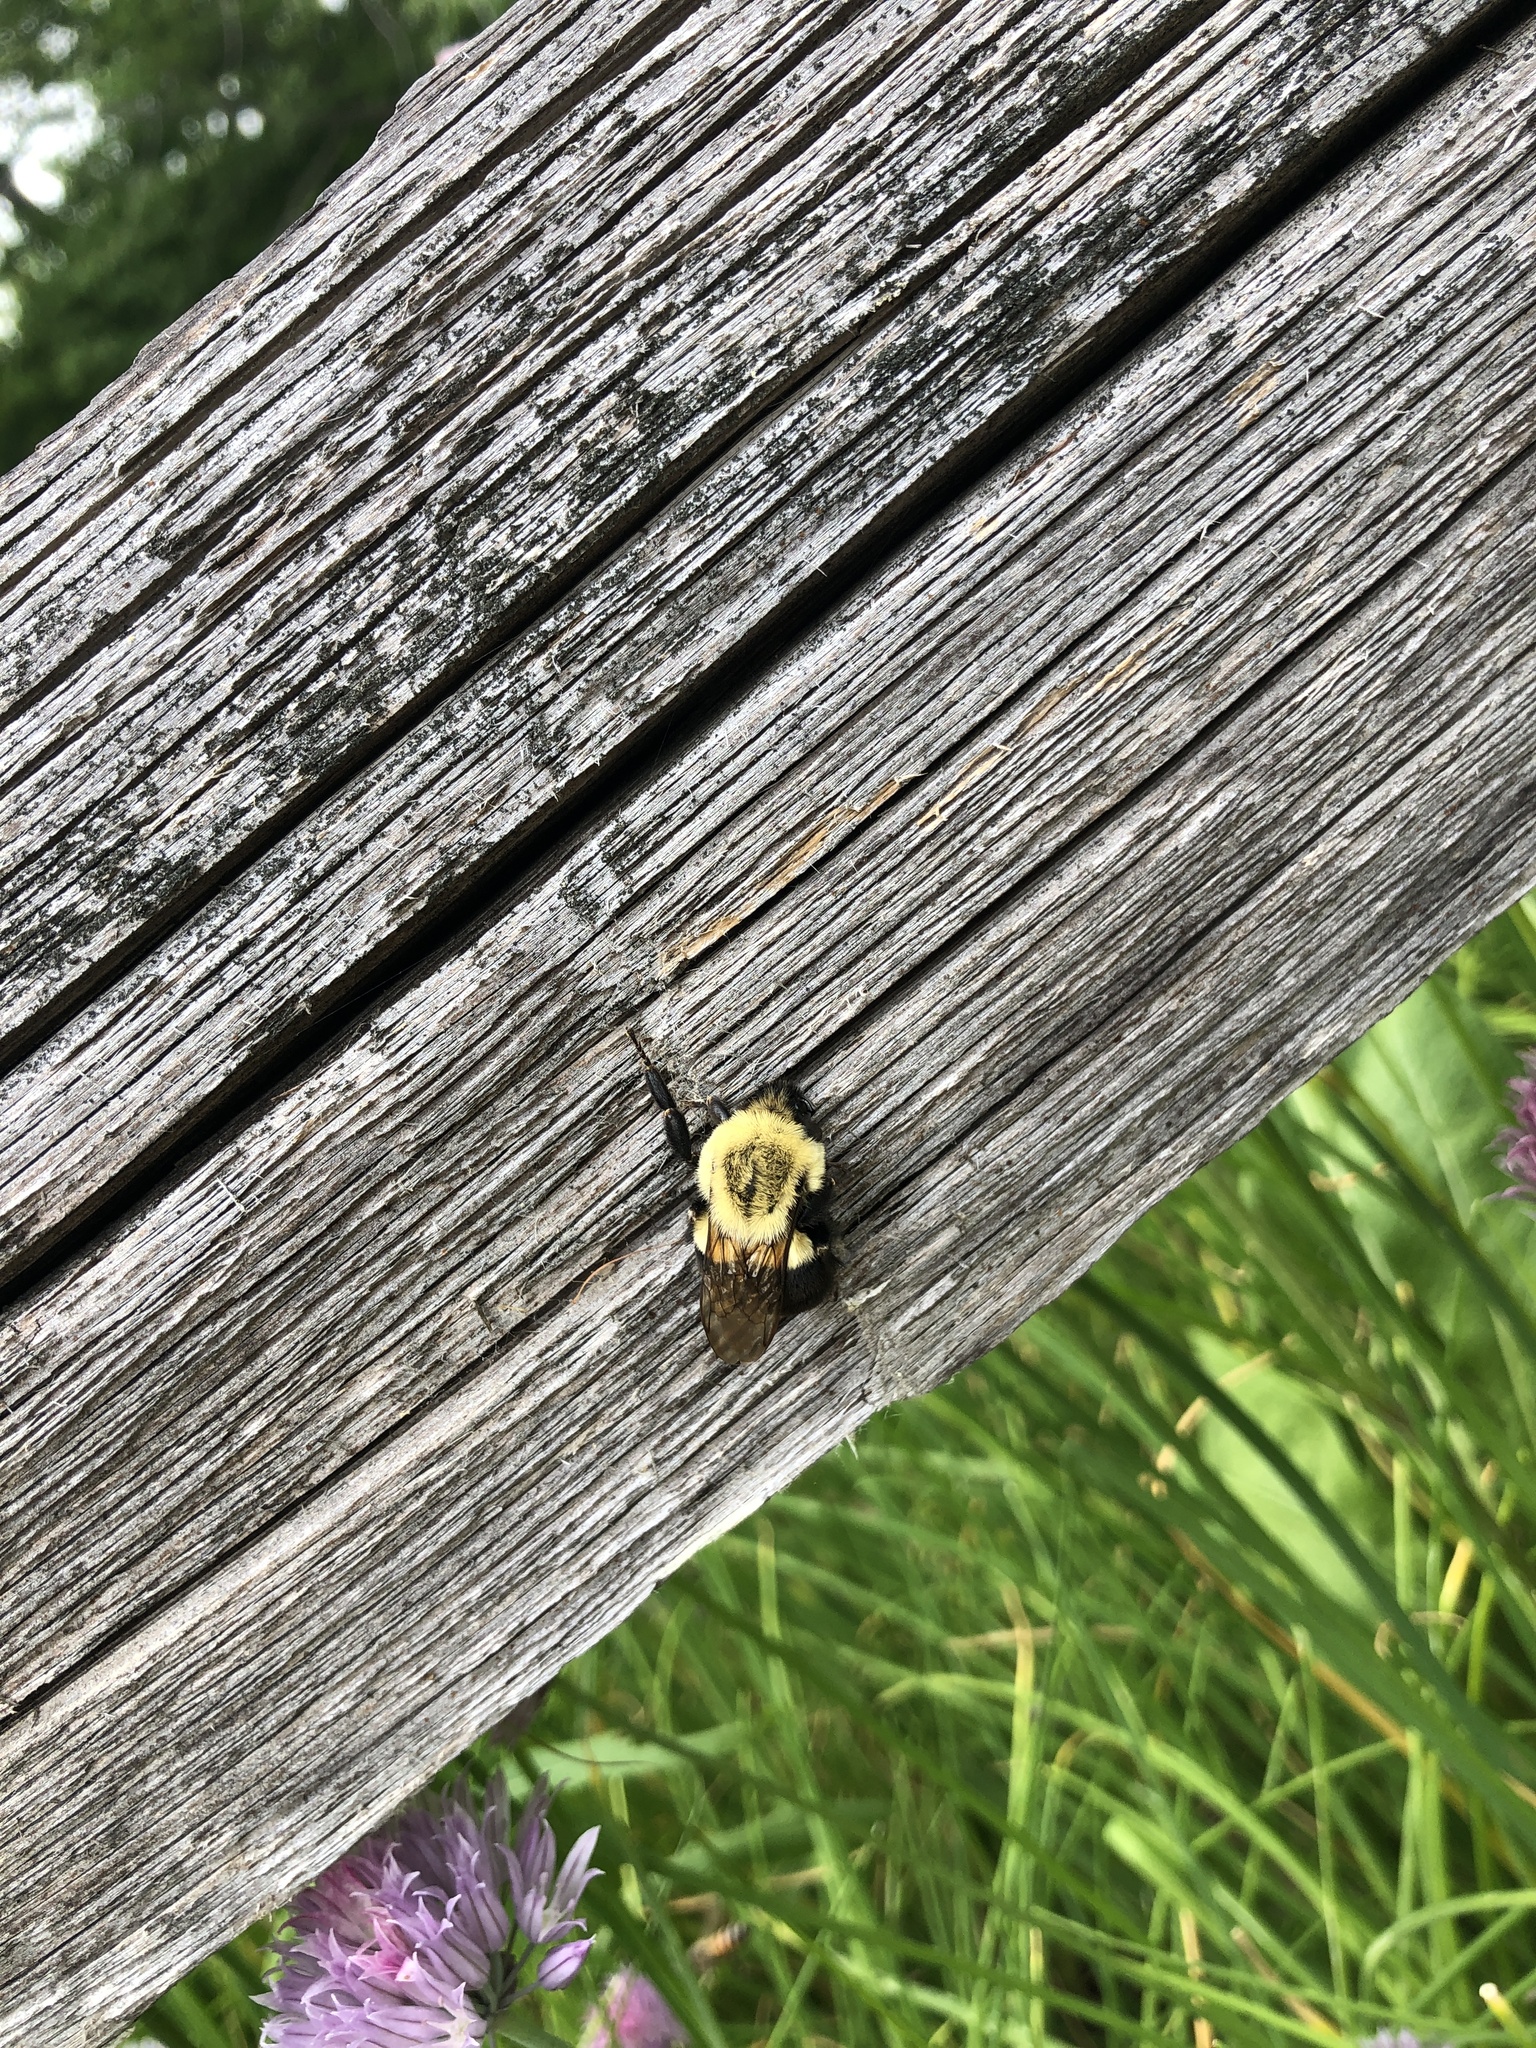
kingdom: Animalia
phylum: Arthropoda
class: Insecta
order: Hymenoptera
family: Apidae
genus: Bombus
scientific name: Bombus impatiens
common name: Common eastern bumble bee
